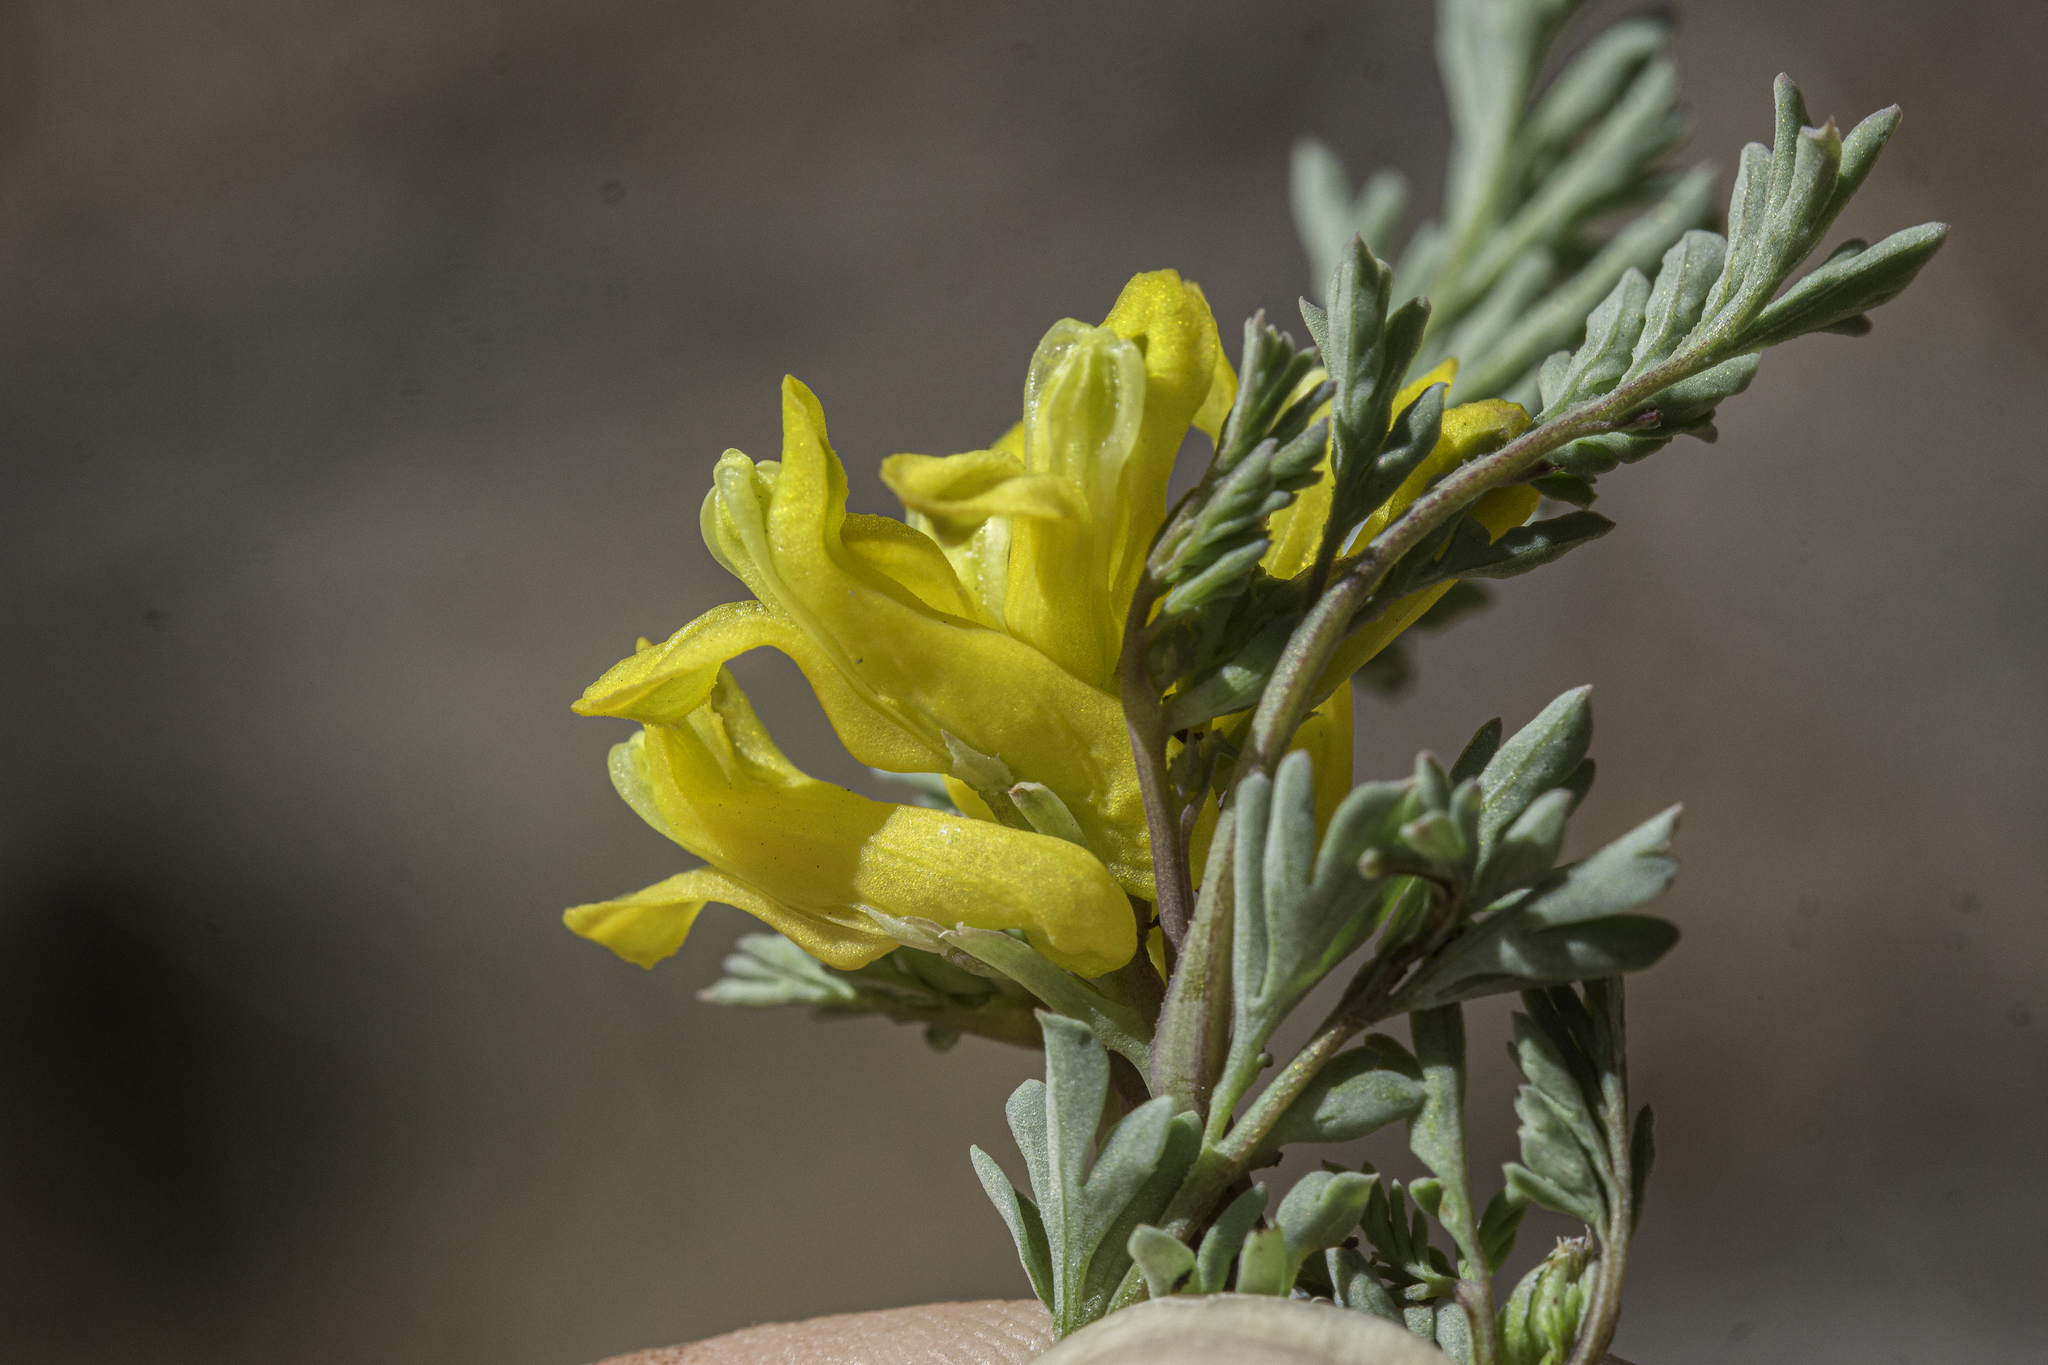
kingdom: Plantae
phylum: Tracheophyta
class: Magnoliopsida
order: Ranunculales
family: Papaveraceae
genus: Corydalis
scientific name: Corydalis aurea
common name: Golden corydalis
